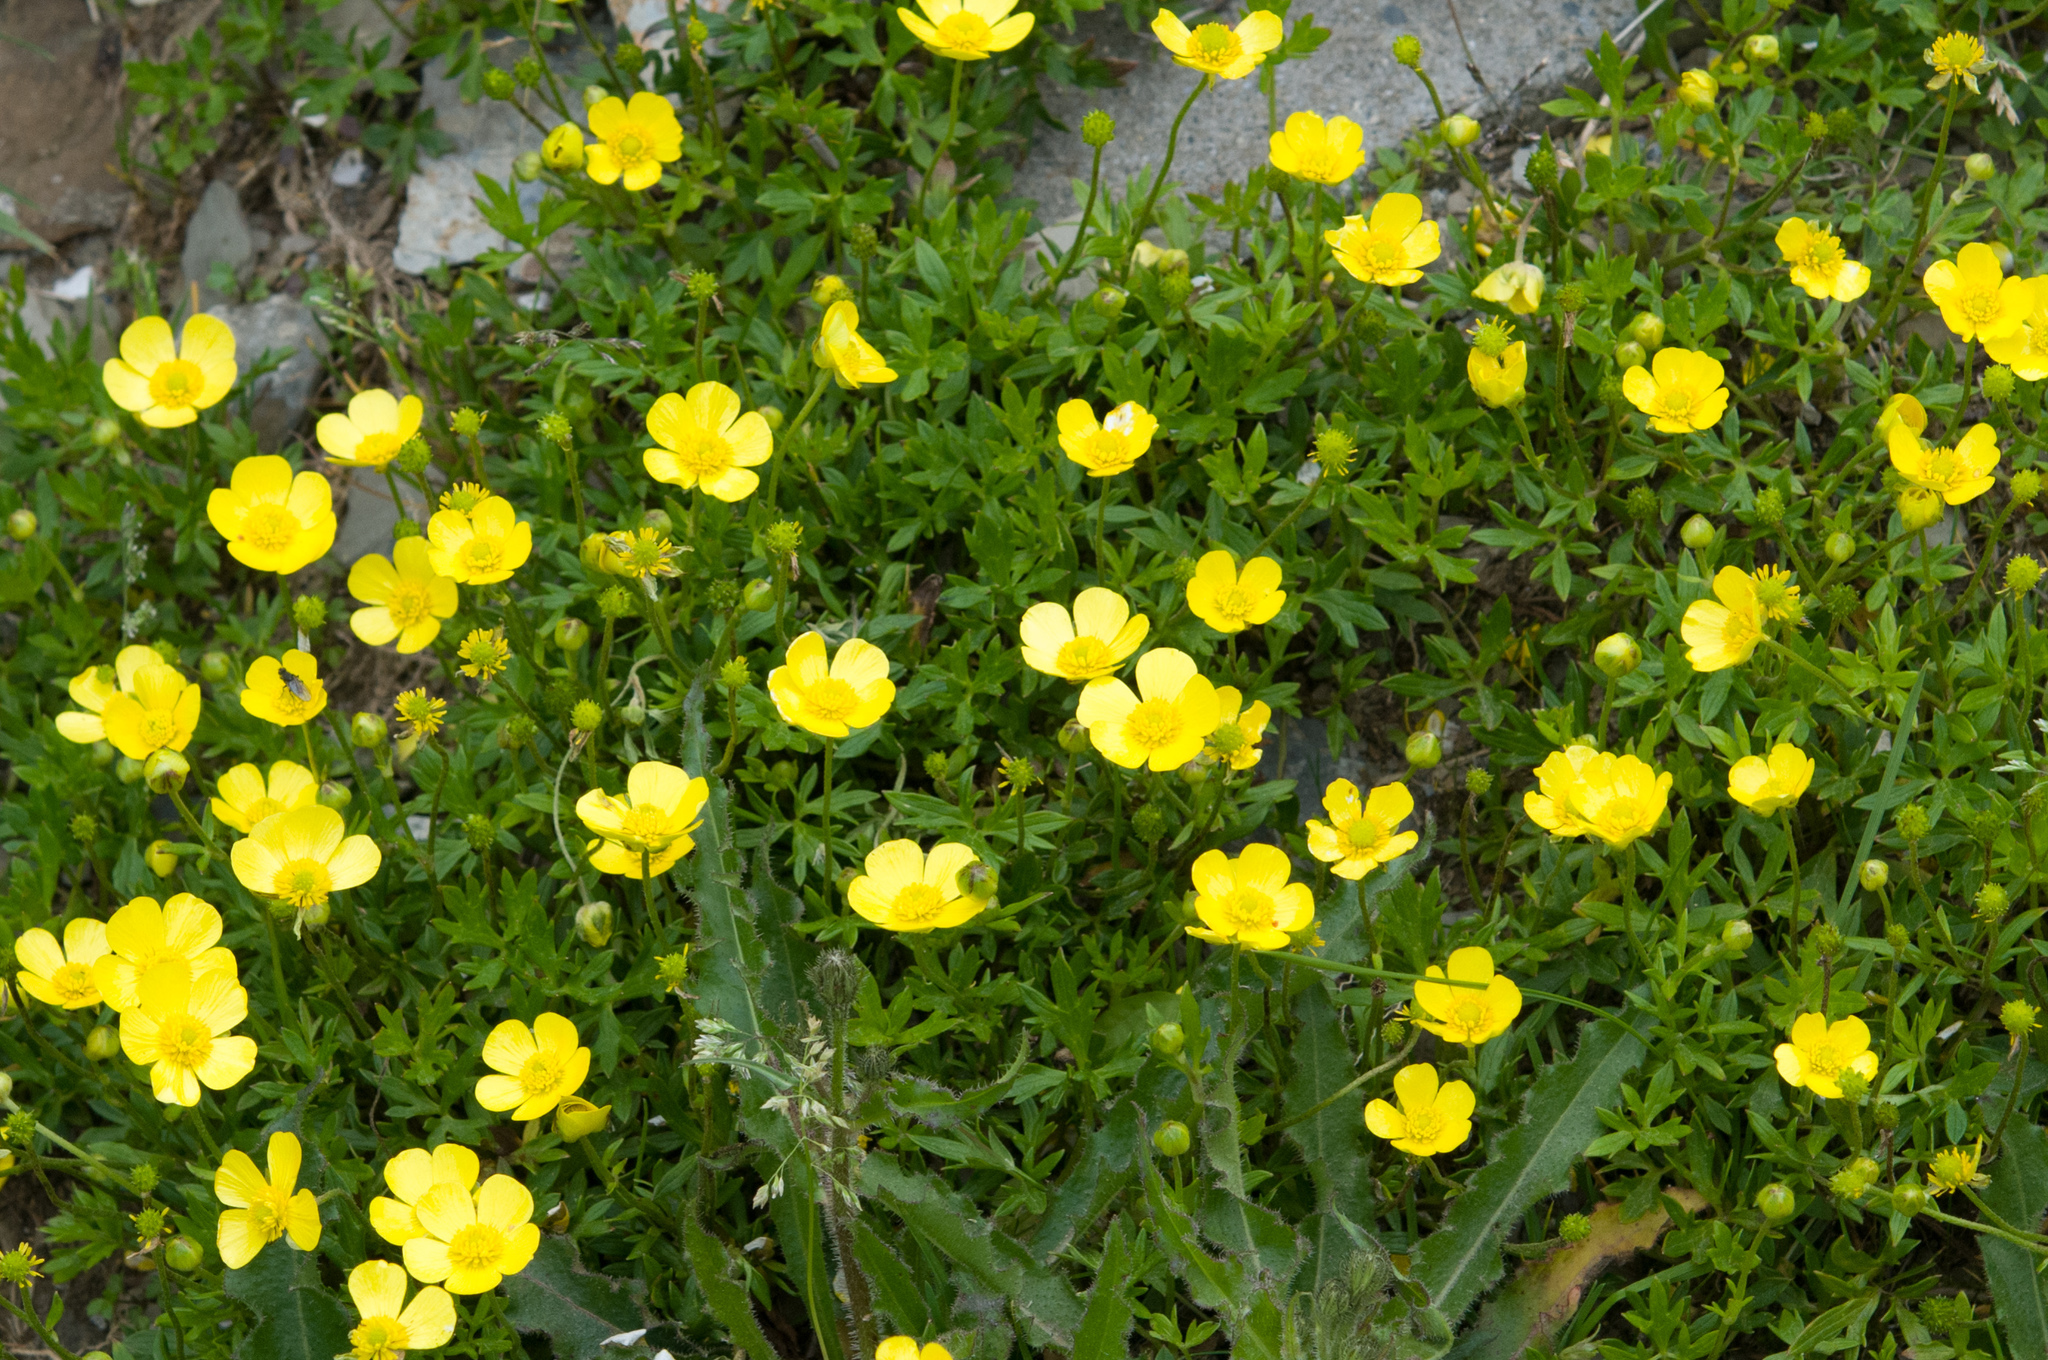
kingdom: Plantae
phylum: Tracheophyta
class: Magnoliopsida
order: Ranunculales
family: Ranunculaceae
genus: Ranunculus
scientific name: Ranunculus formosa-montanus
